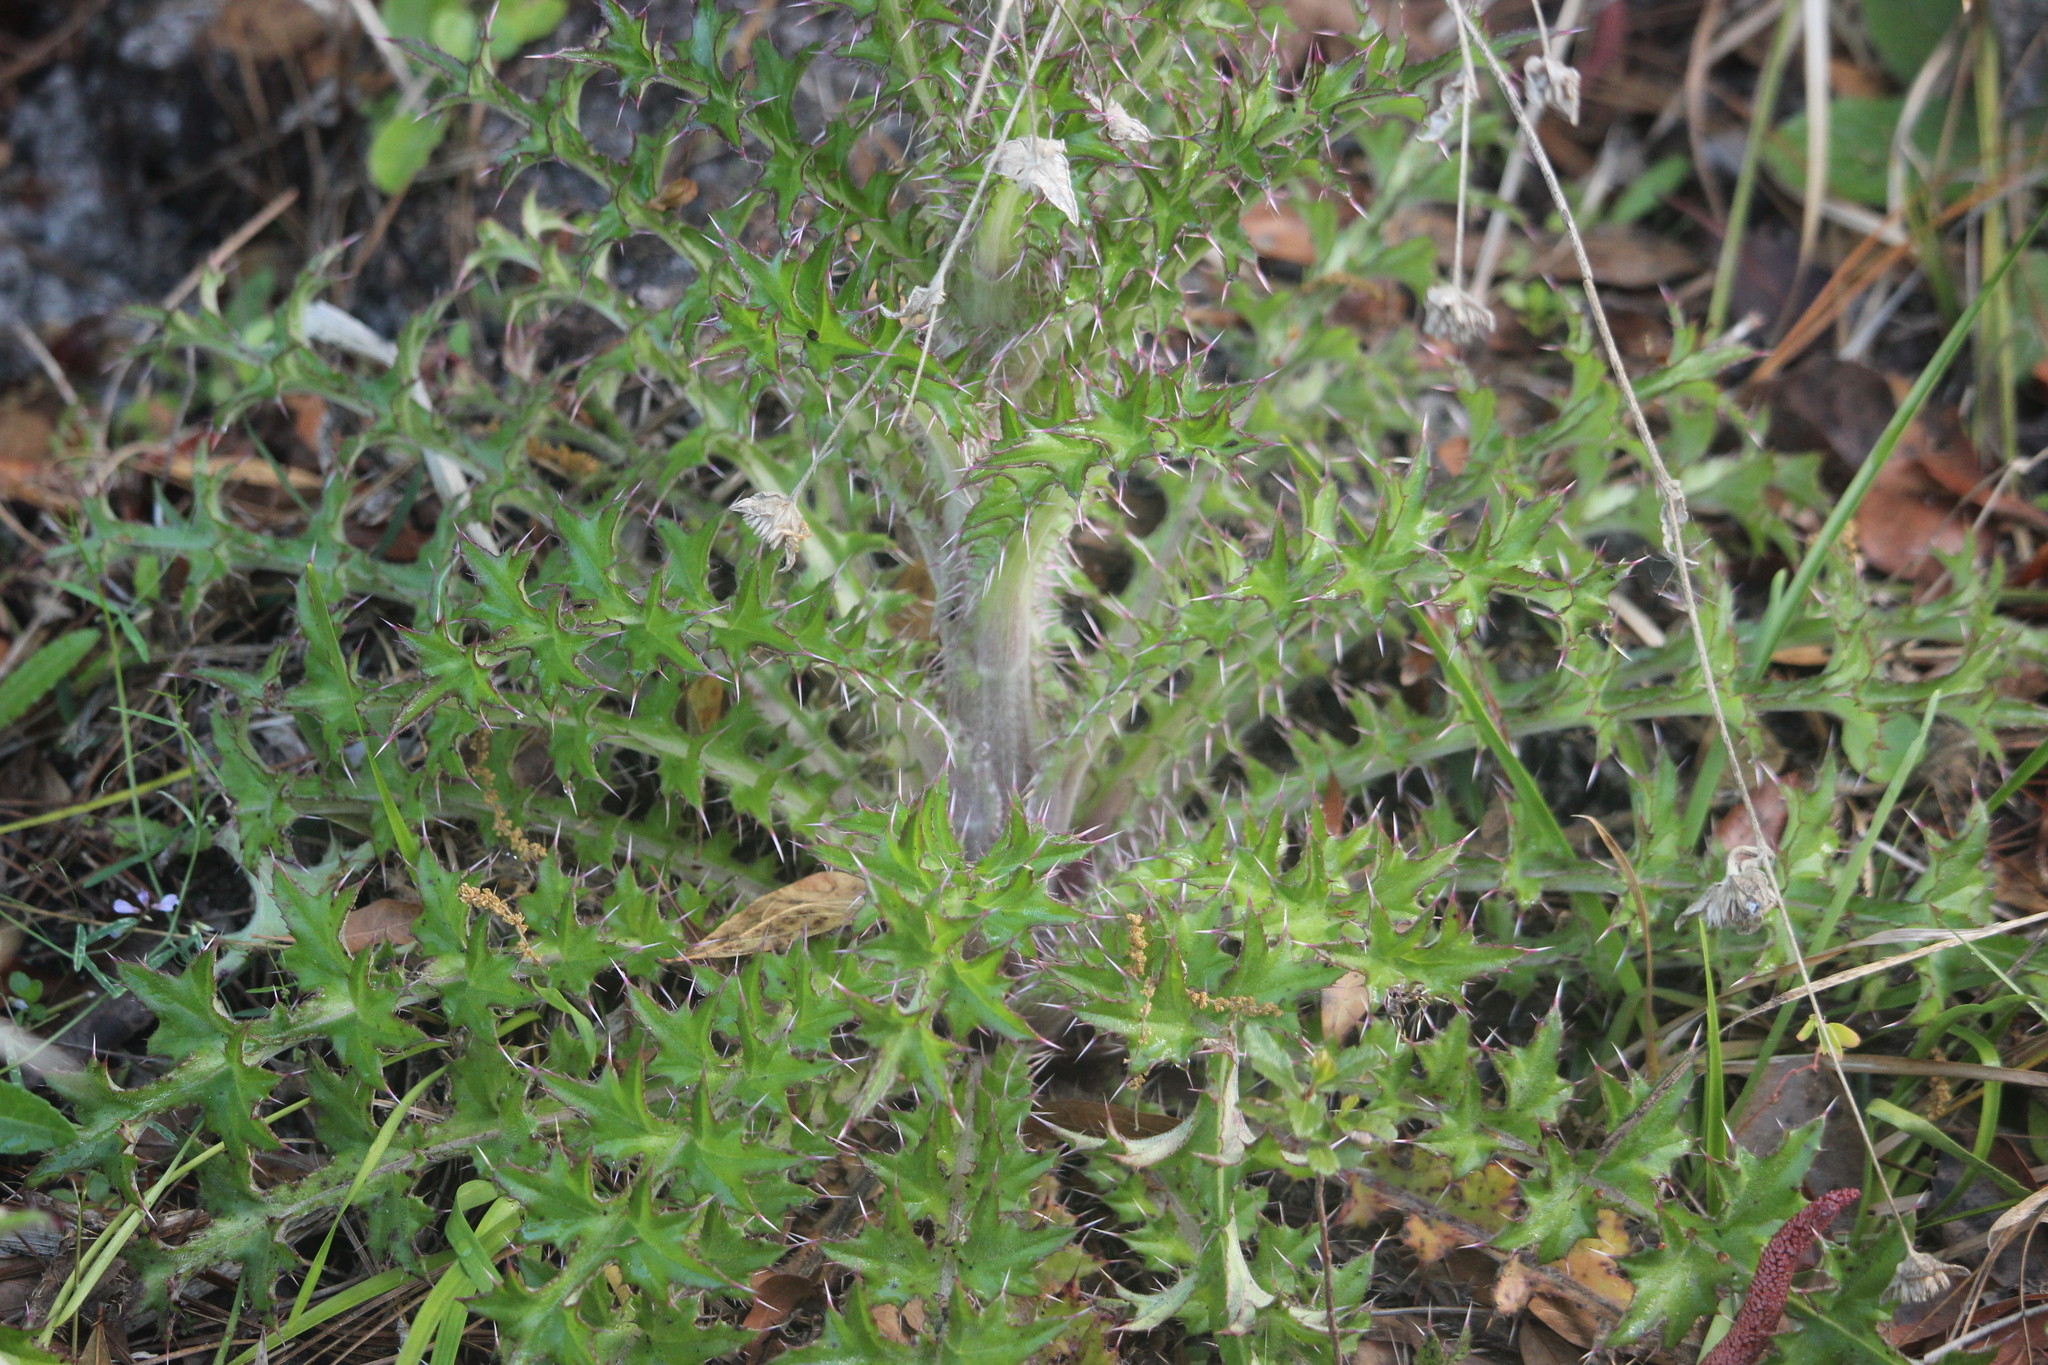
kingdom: Plantae
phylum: Tracheophyta
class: Magnoliopsida
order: Asterales
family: Asteraceae
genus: Cirsium
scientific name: Cirsium horridulum
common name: Bristly thistle
